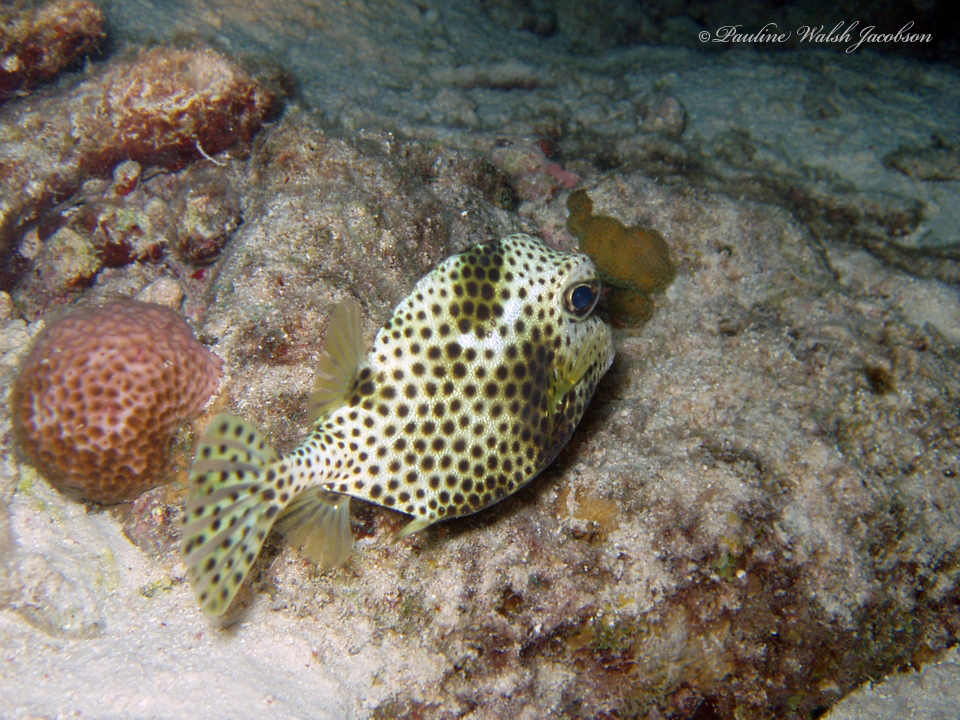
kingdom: Animalia
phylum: Chordata
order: Tetraodontiformes
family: Ostraciidae
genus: Lactophrys
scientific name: Lactophrys bicaudalis
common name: Spotted trunkfish
